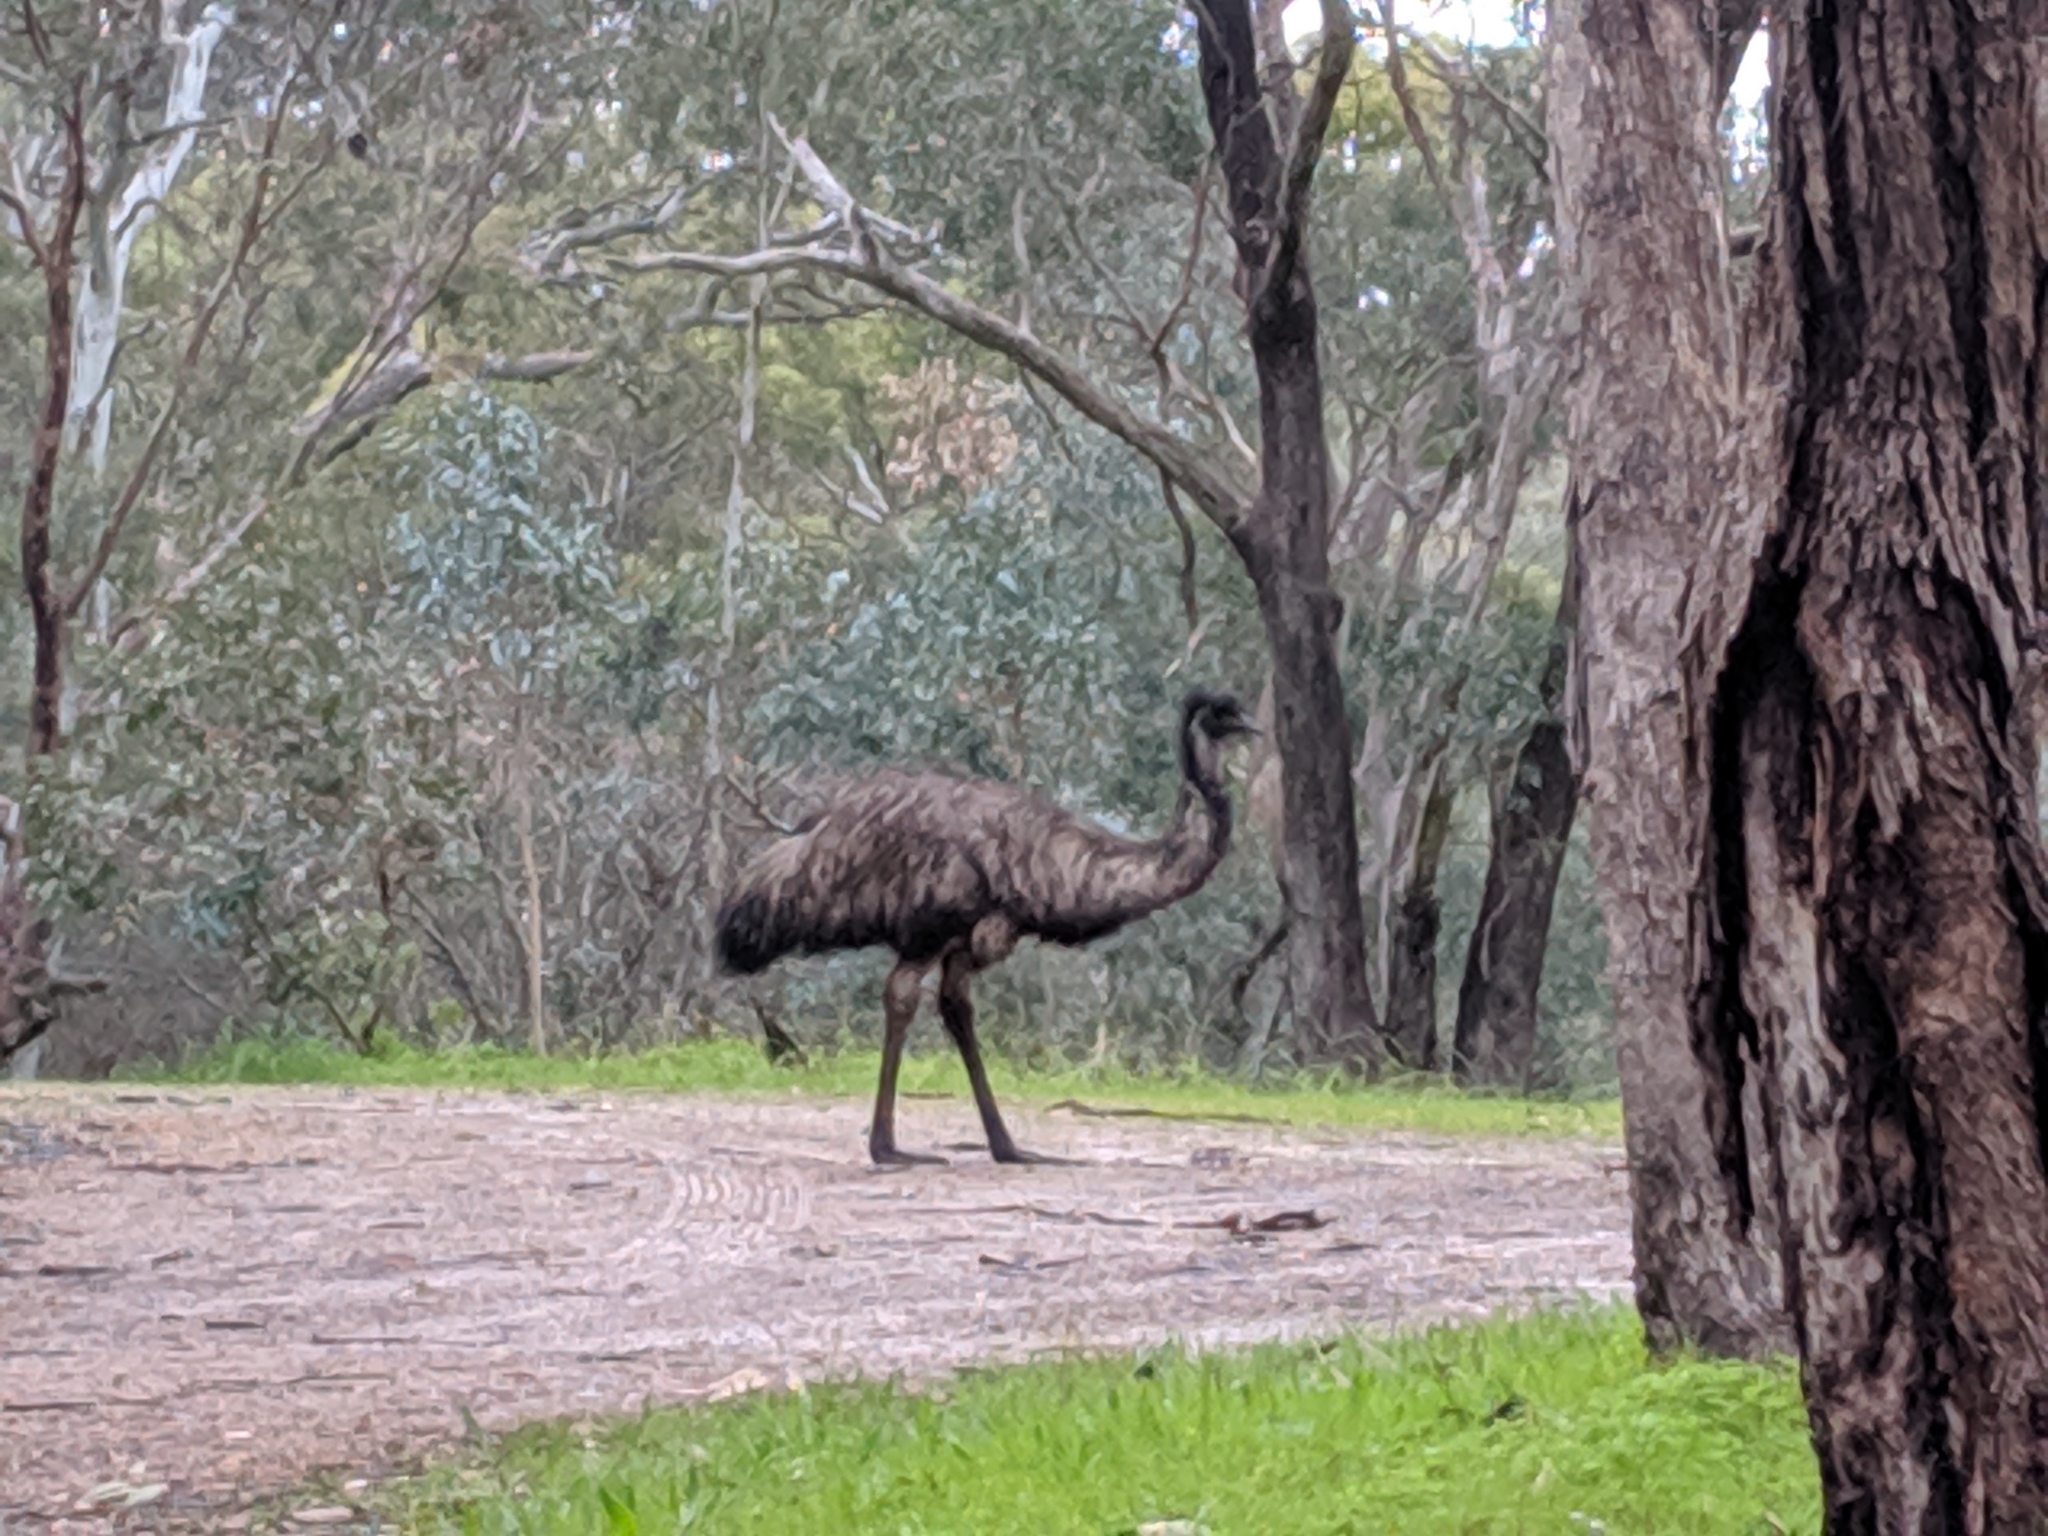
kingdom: Animalia
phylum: Chordata
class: Aves
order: Casuariiformes
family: Dromaiidae
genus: Dromaius
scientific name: Dromaius novaehollandiae
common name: Emu
